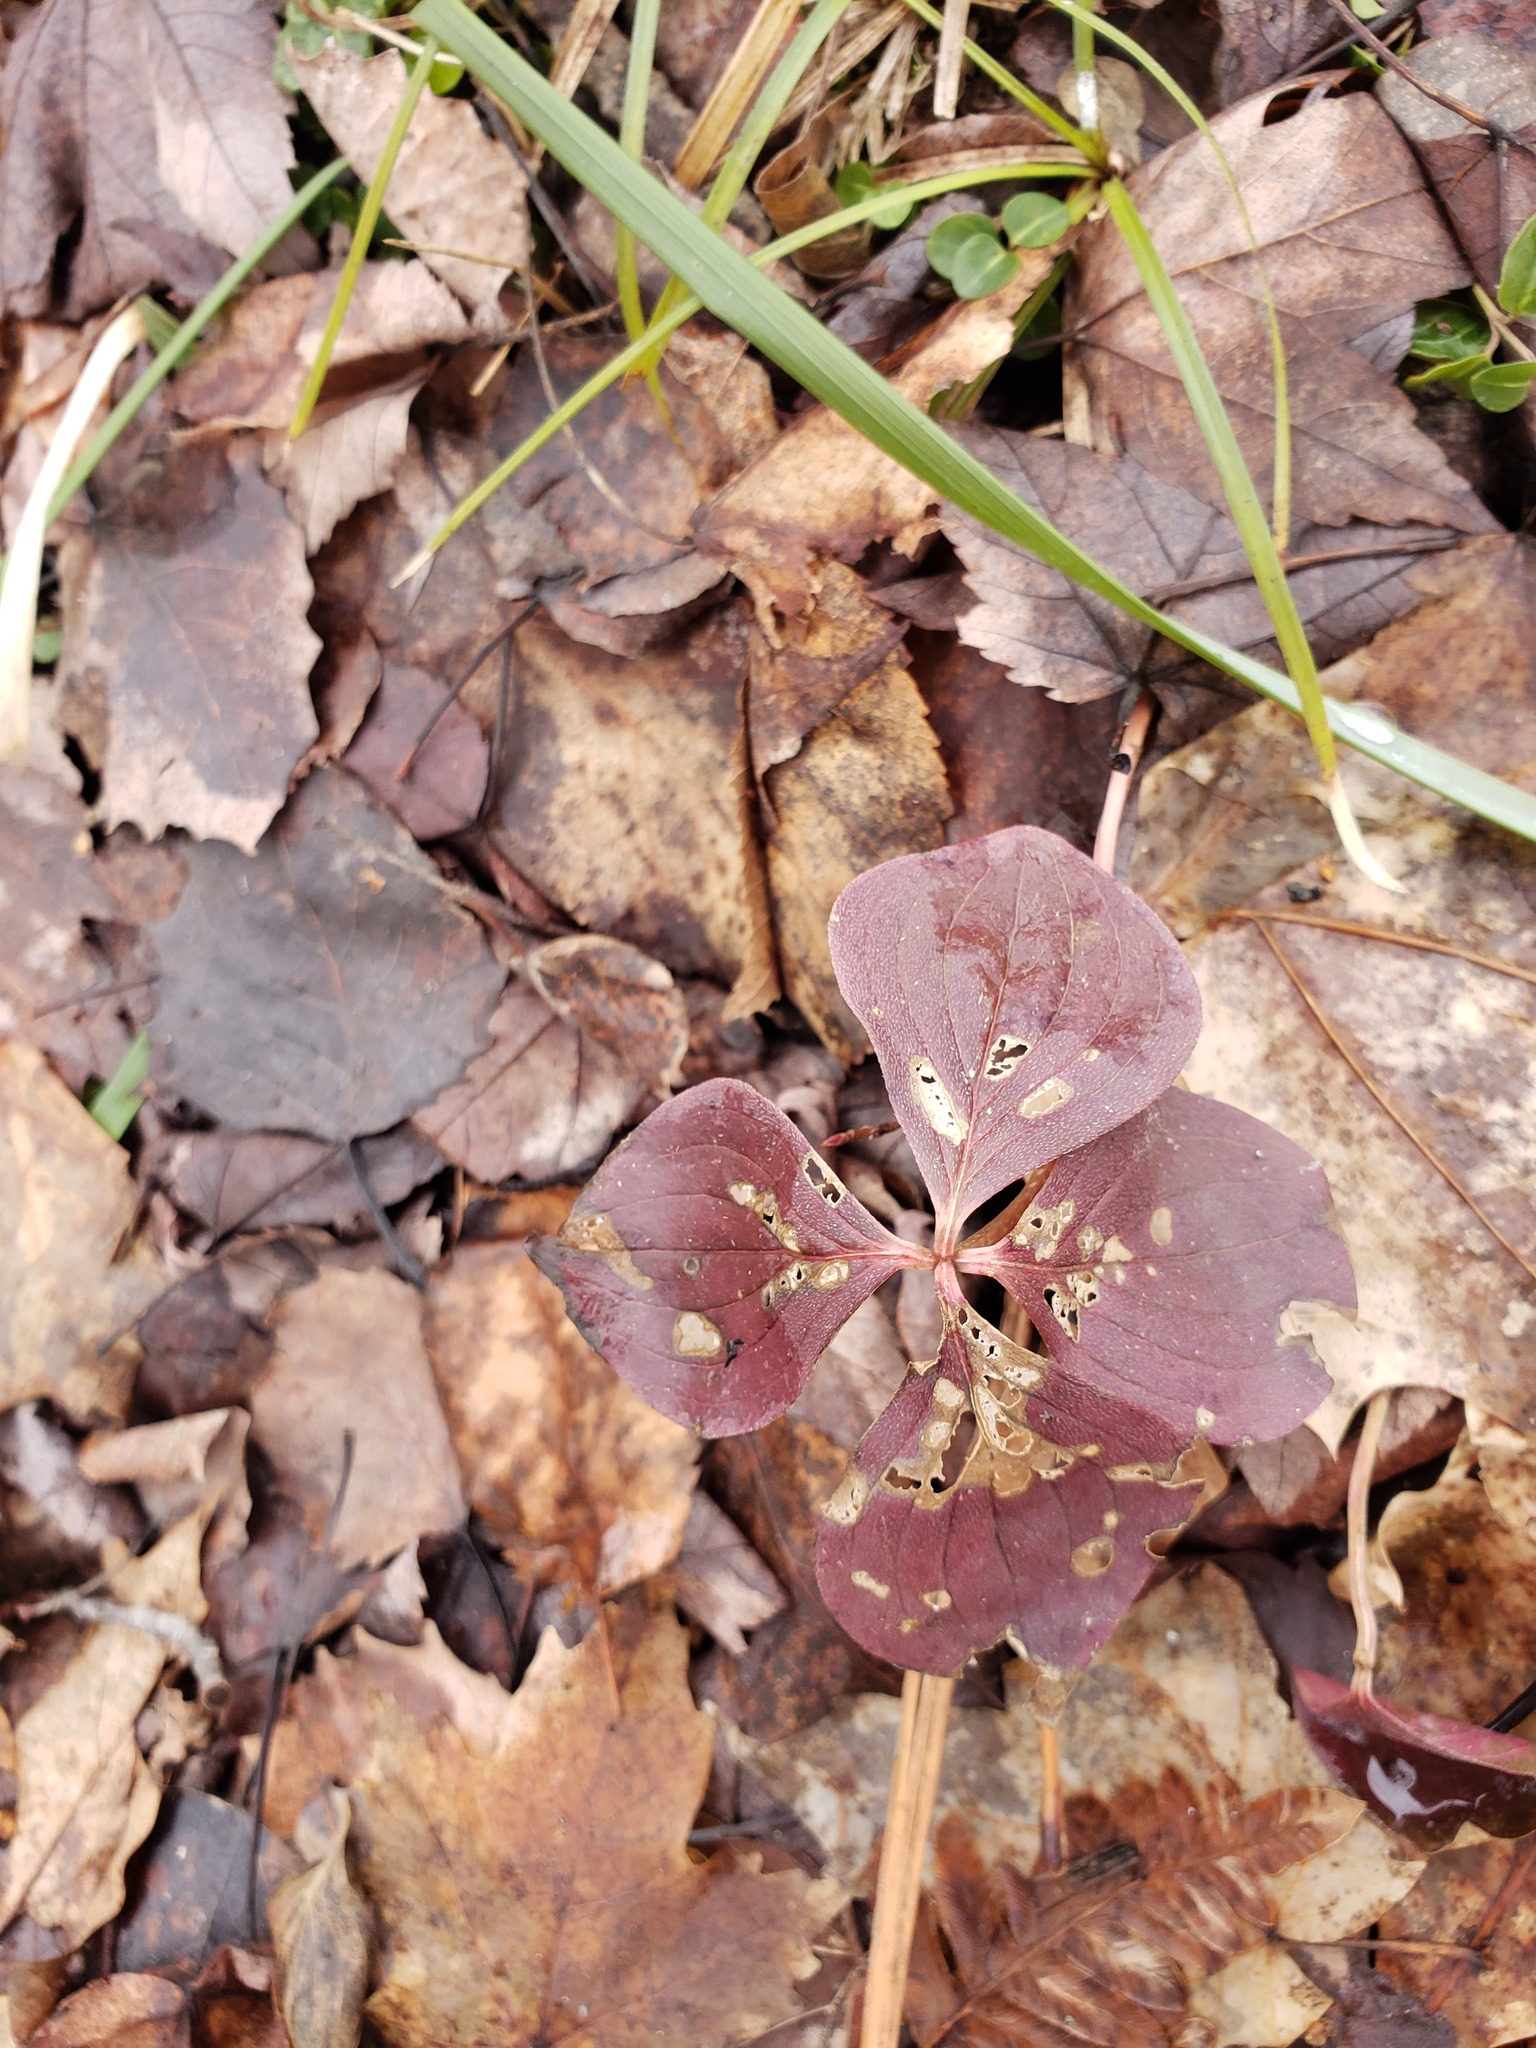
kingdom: Plantae
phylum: Tracheophyta
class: Magnoliopsida
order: Cornales
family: Cornaceae
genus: Cornus
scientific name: Cornus canadensis
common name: Creeping dogwood
